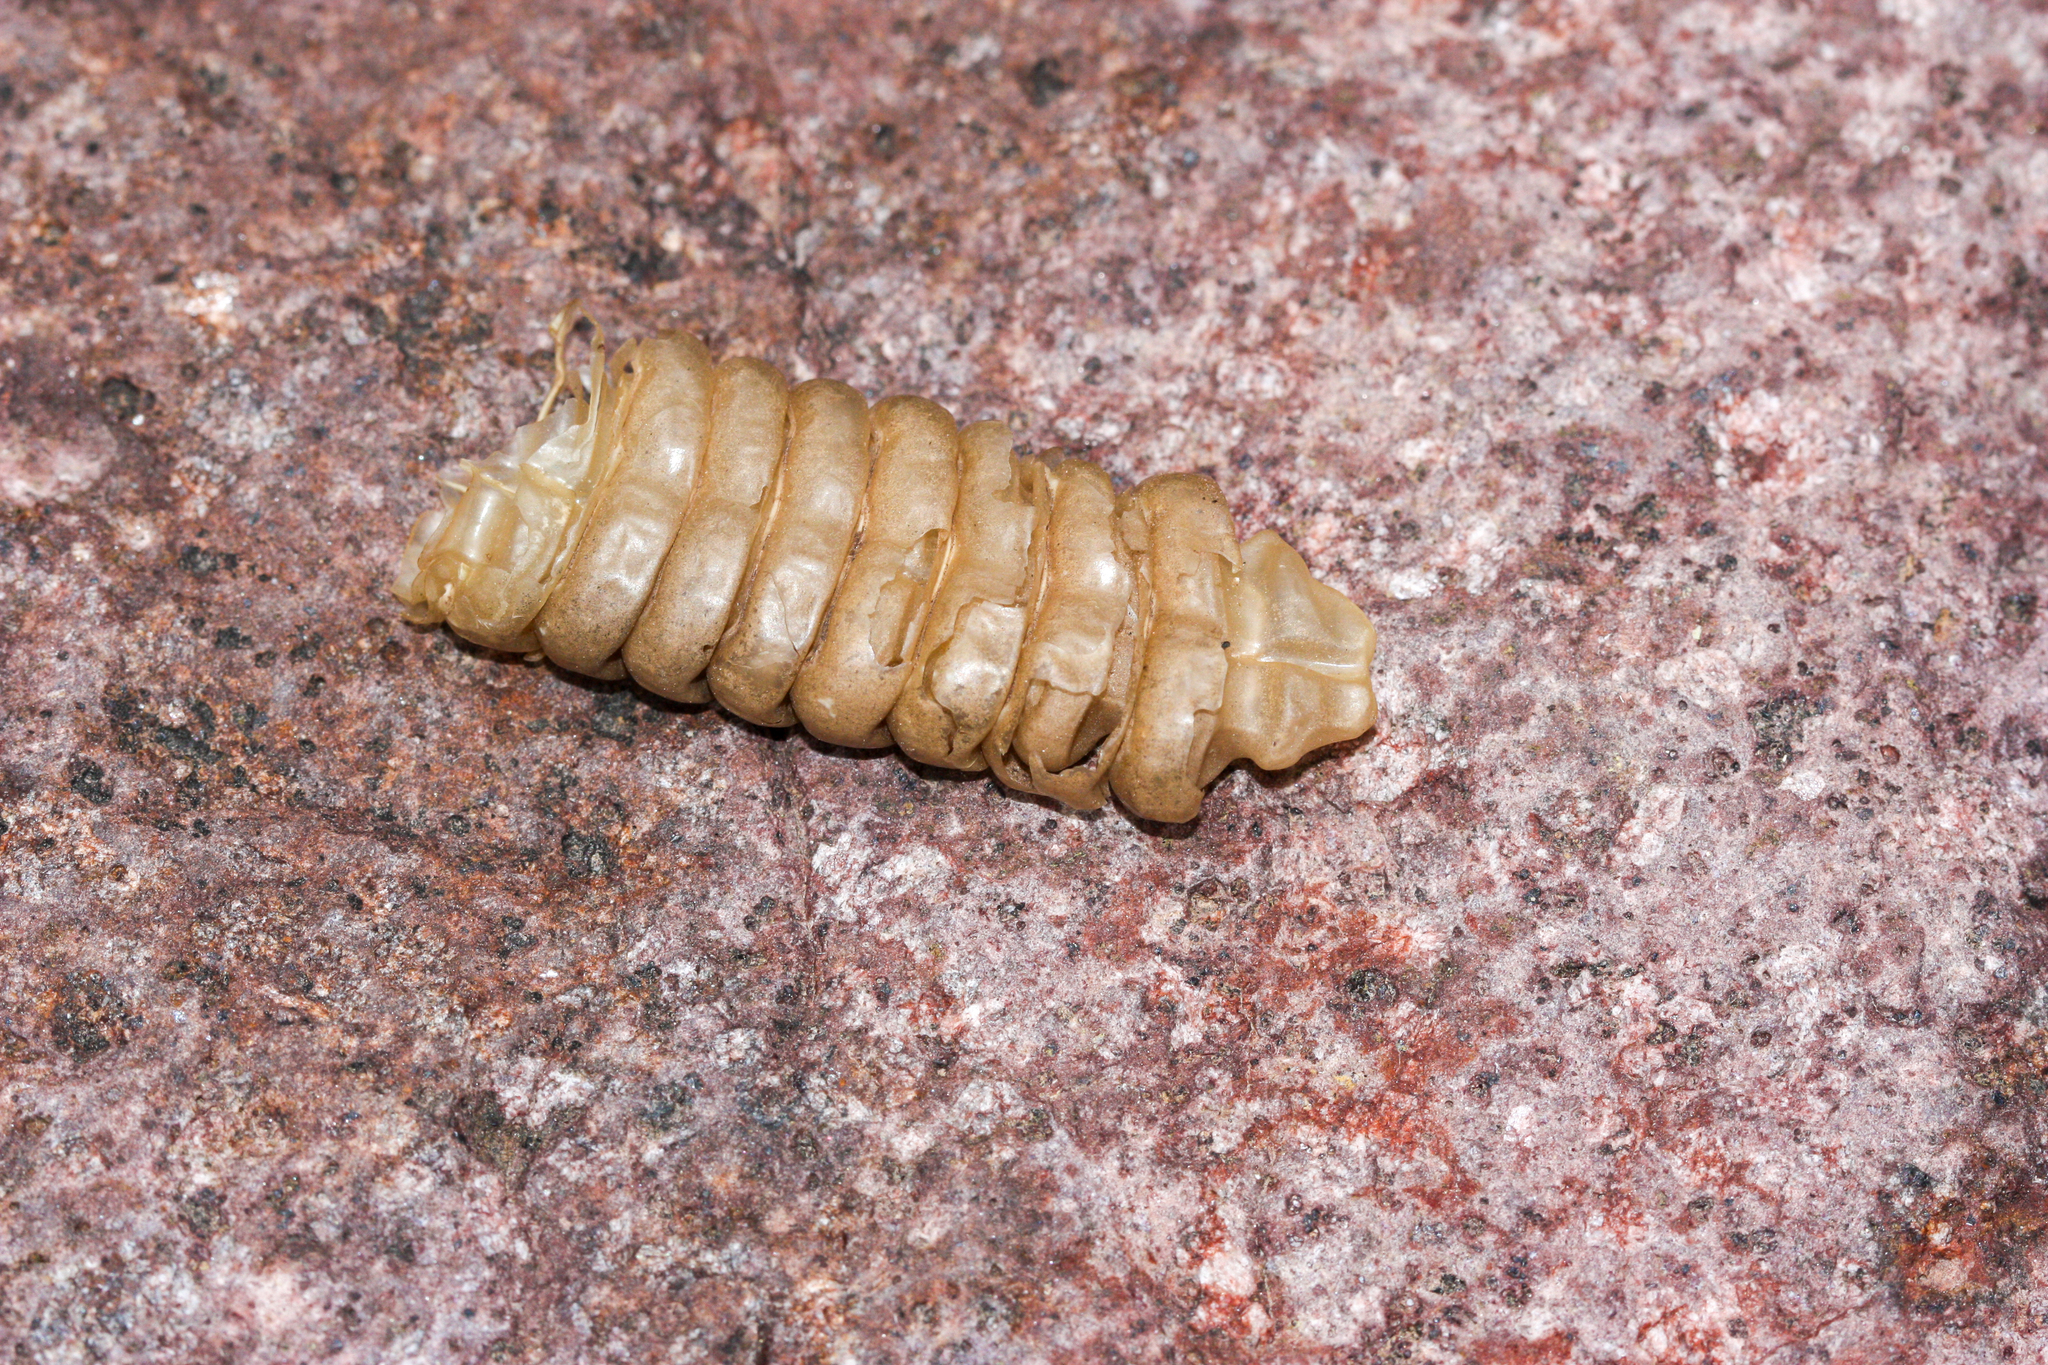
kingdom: Animalia
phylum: Chordata
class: Squamata
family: Viperidae
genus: Crotalus
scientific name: Crotalus
